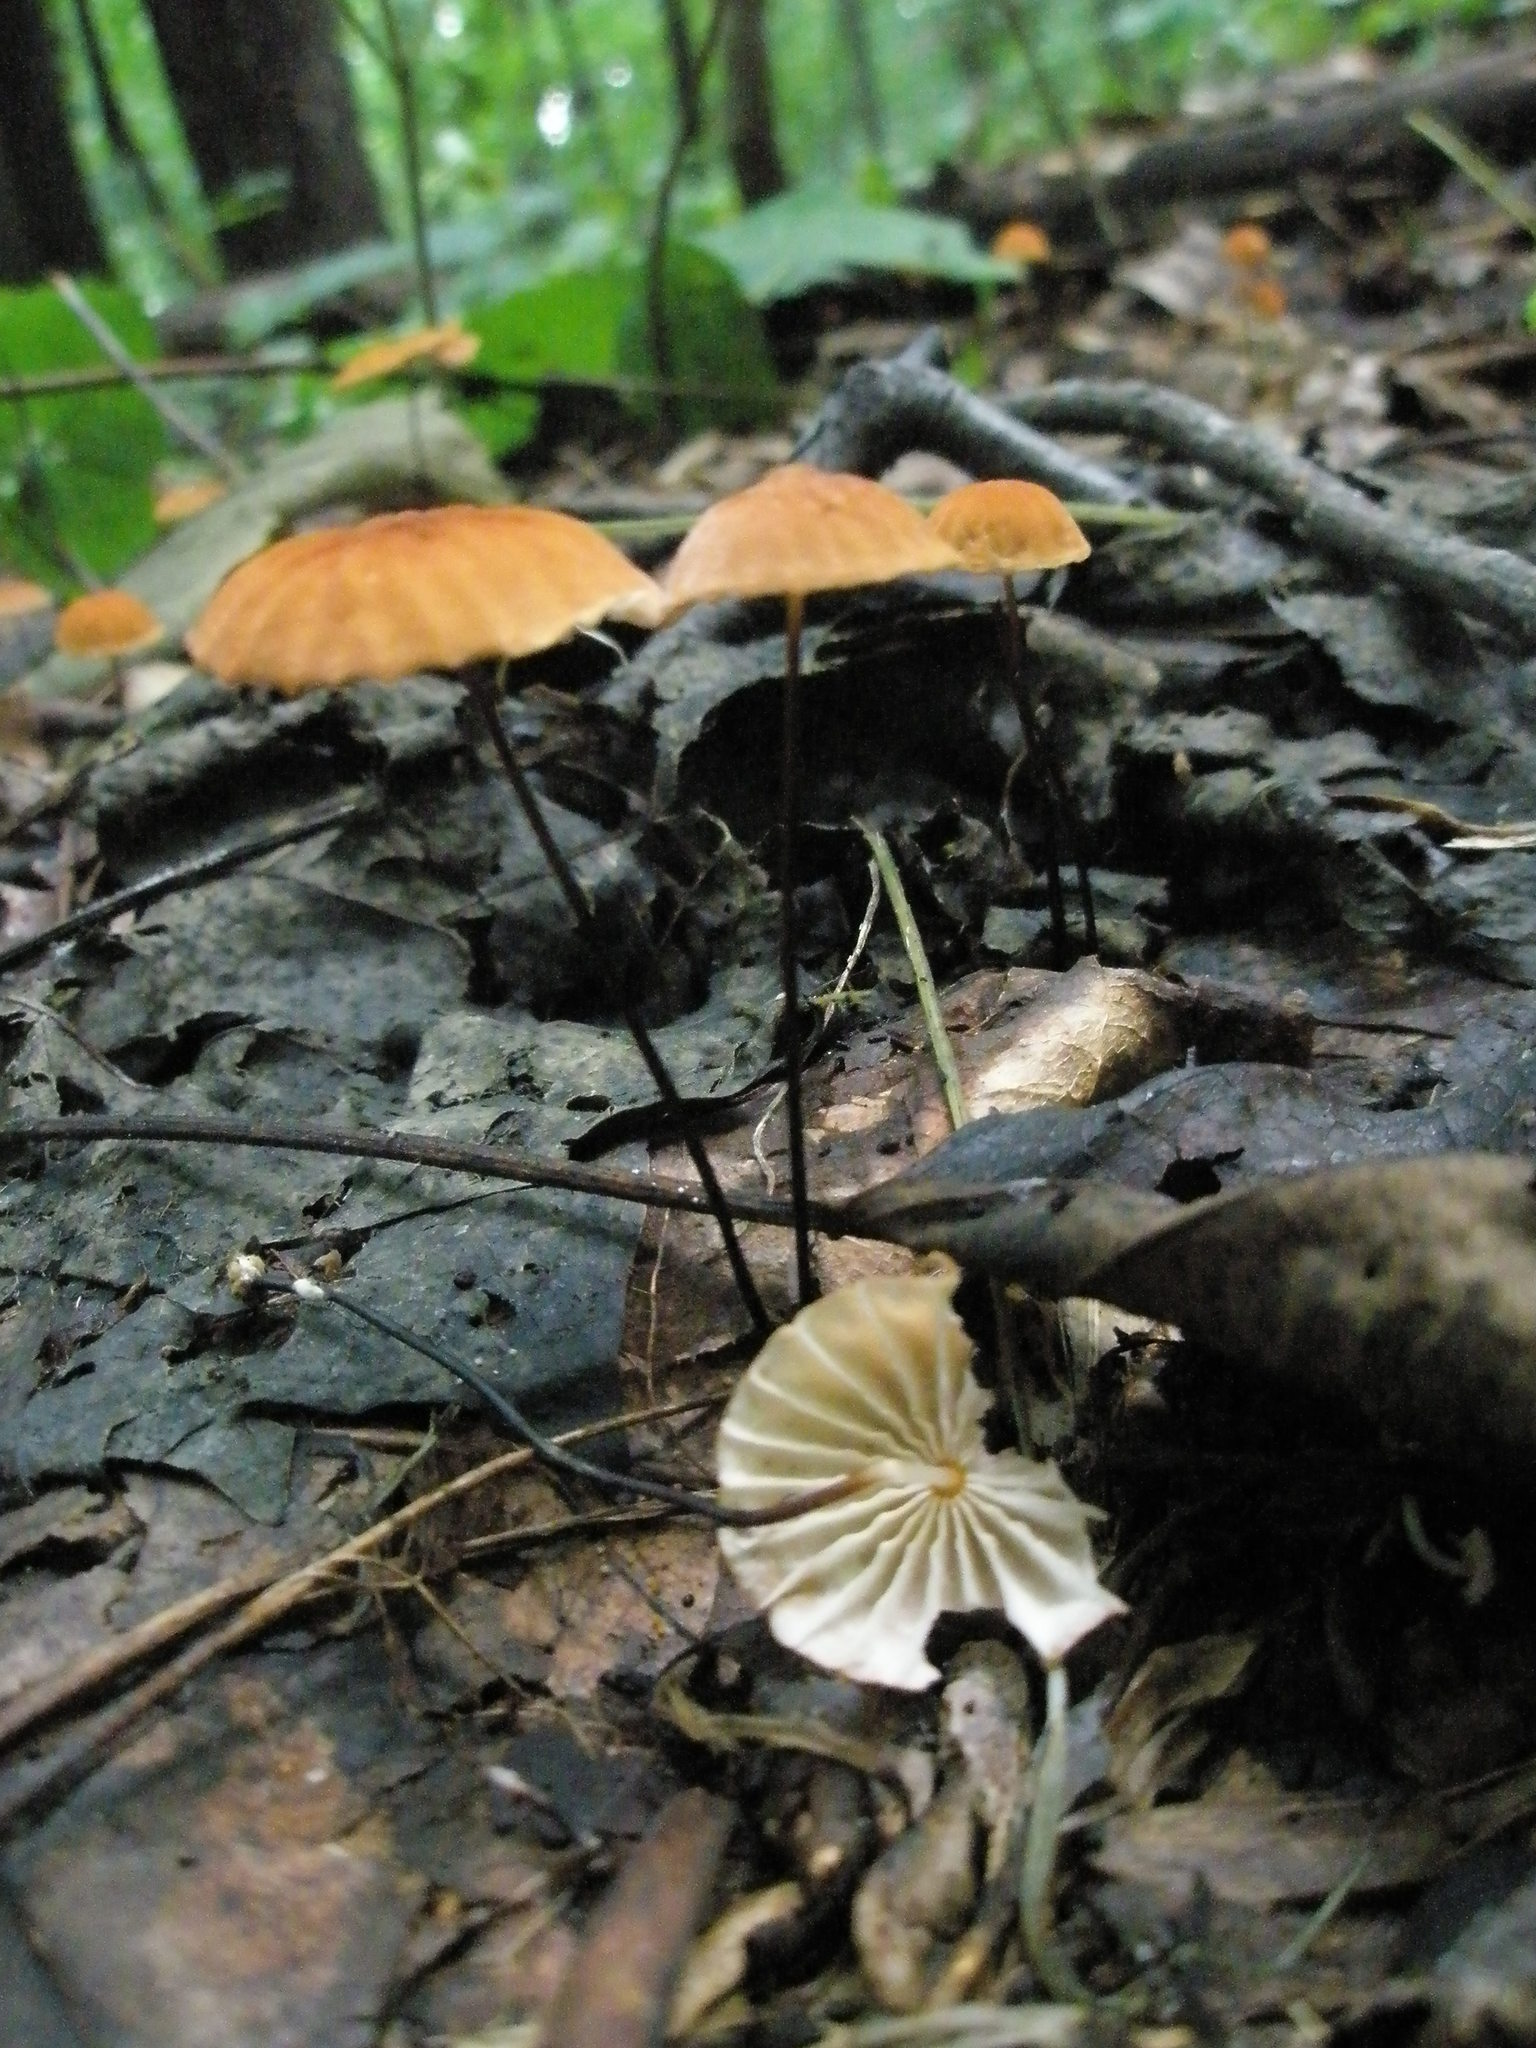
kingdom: Fungi
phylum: Basidiomycota
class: Agaricomycetes
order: Agaricales
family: Marasmiaceae
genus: Marasmius
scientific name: Marasmius siccus
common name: Orange pinwheel
